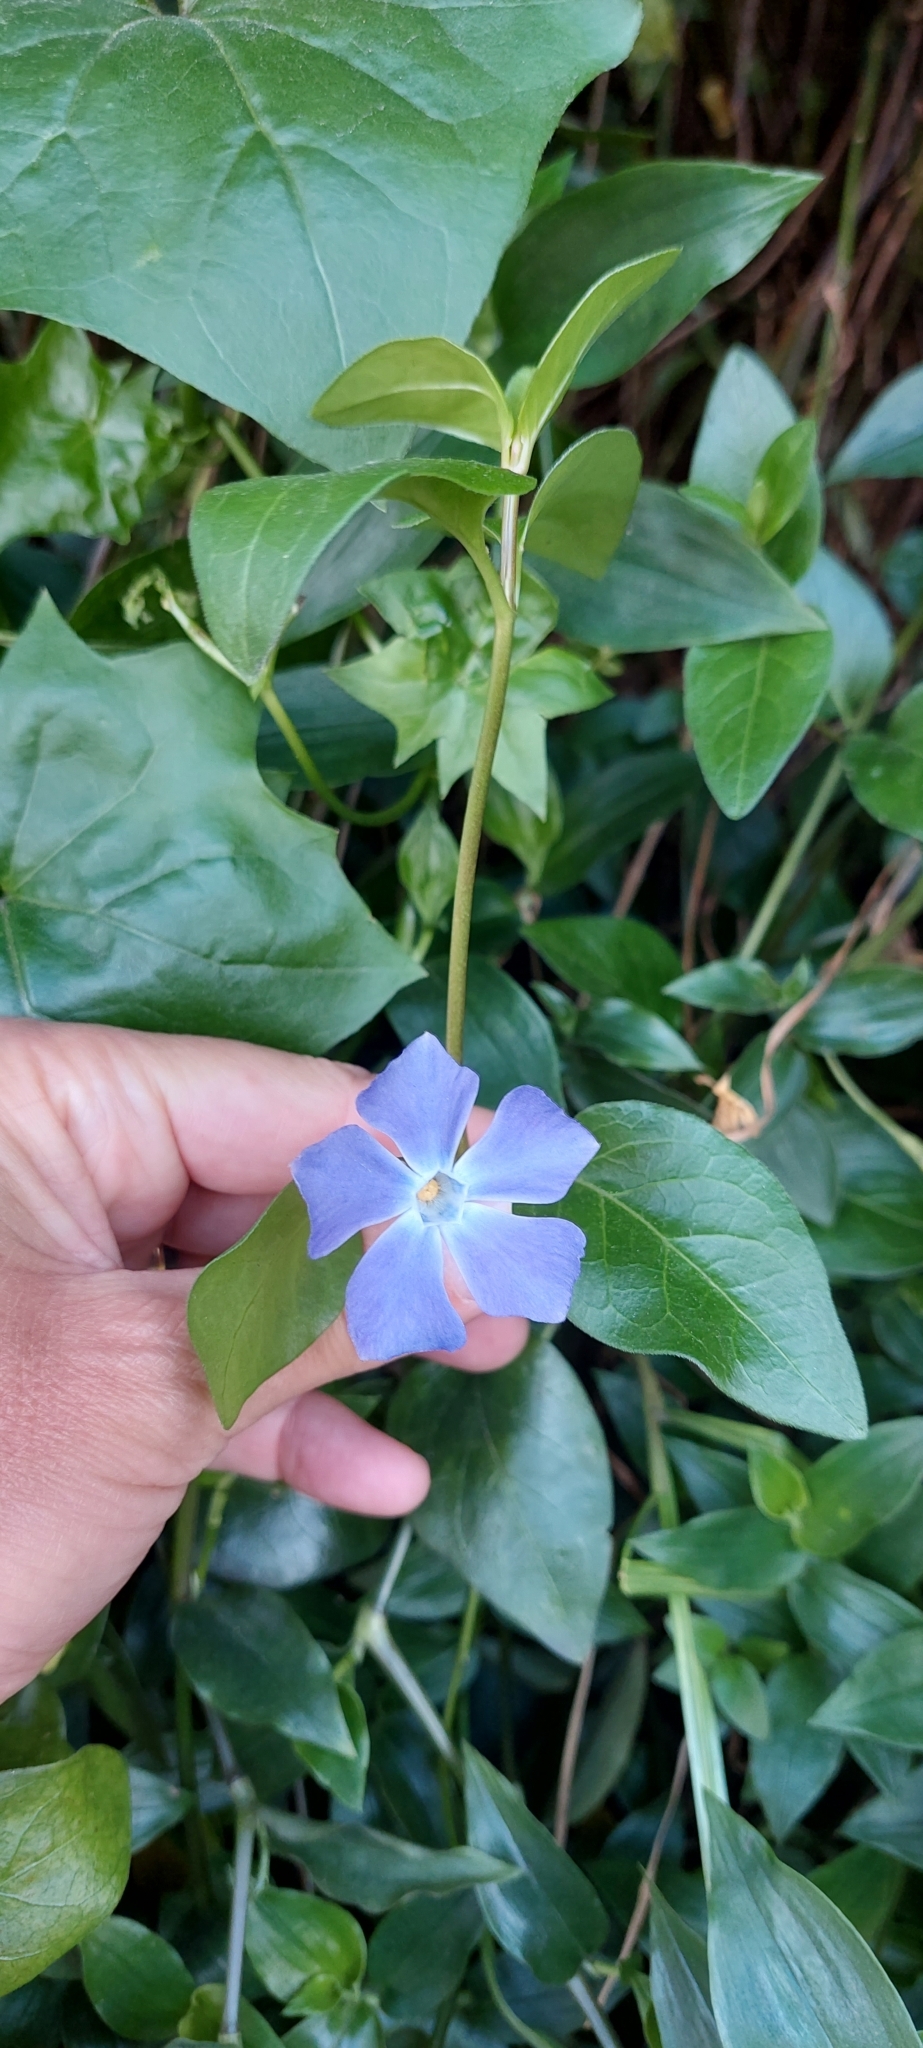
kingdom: Plantae
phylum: Tracheophyta
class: Magnoliopsida
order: Gentianales
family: Apocynaceae
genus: Vinca
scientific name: Vinca major
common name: Greater periwinkle
